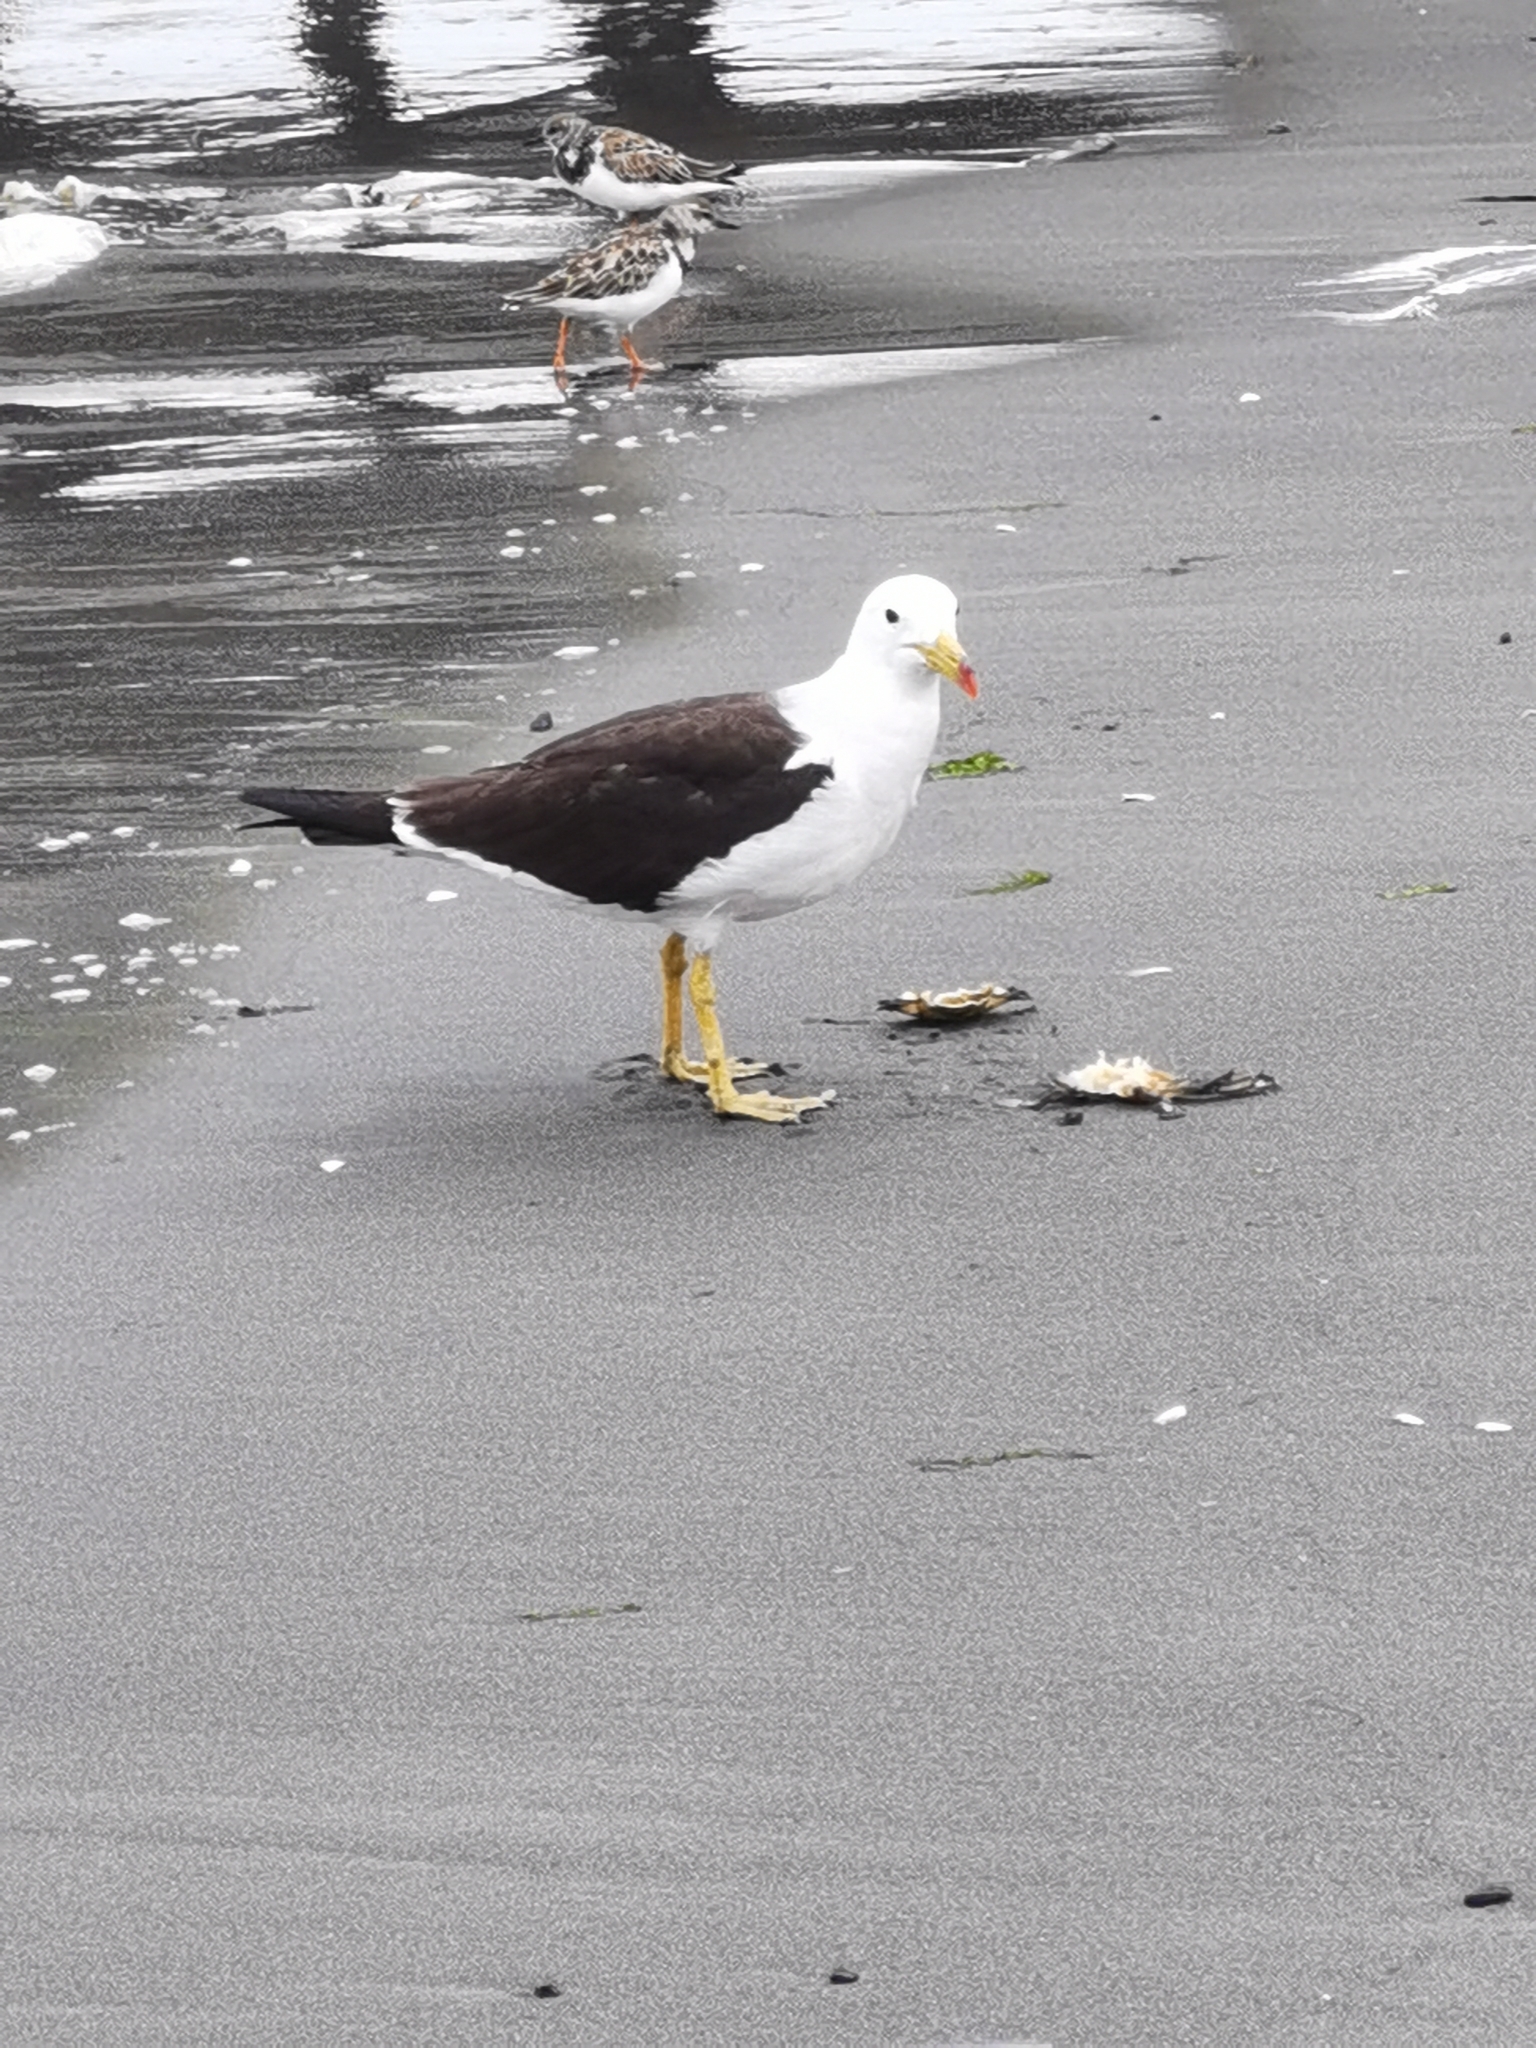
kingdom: Animalia
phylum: Chordata
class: Aves
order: Charadriiformes
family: Laridae
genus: Larus
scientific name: Larus belcheri
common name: Belcher's gull
